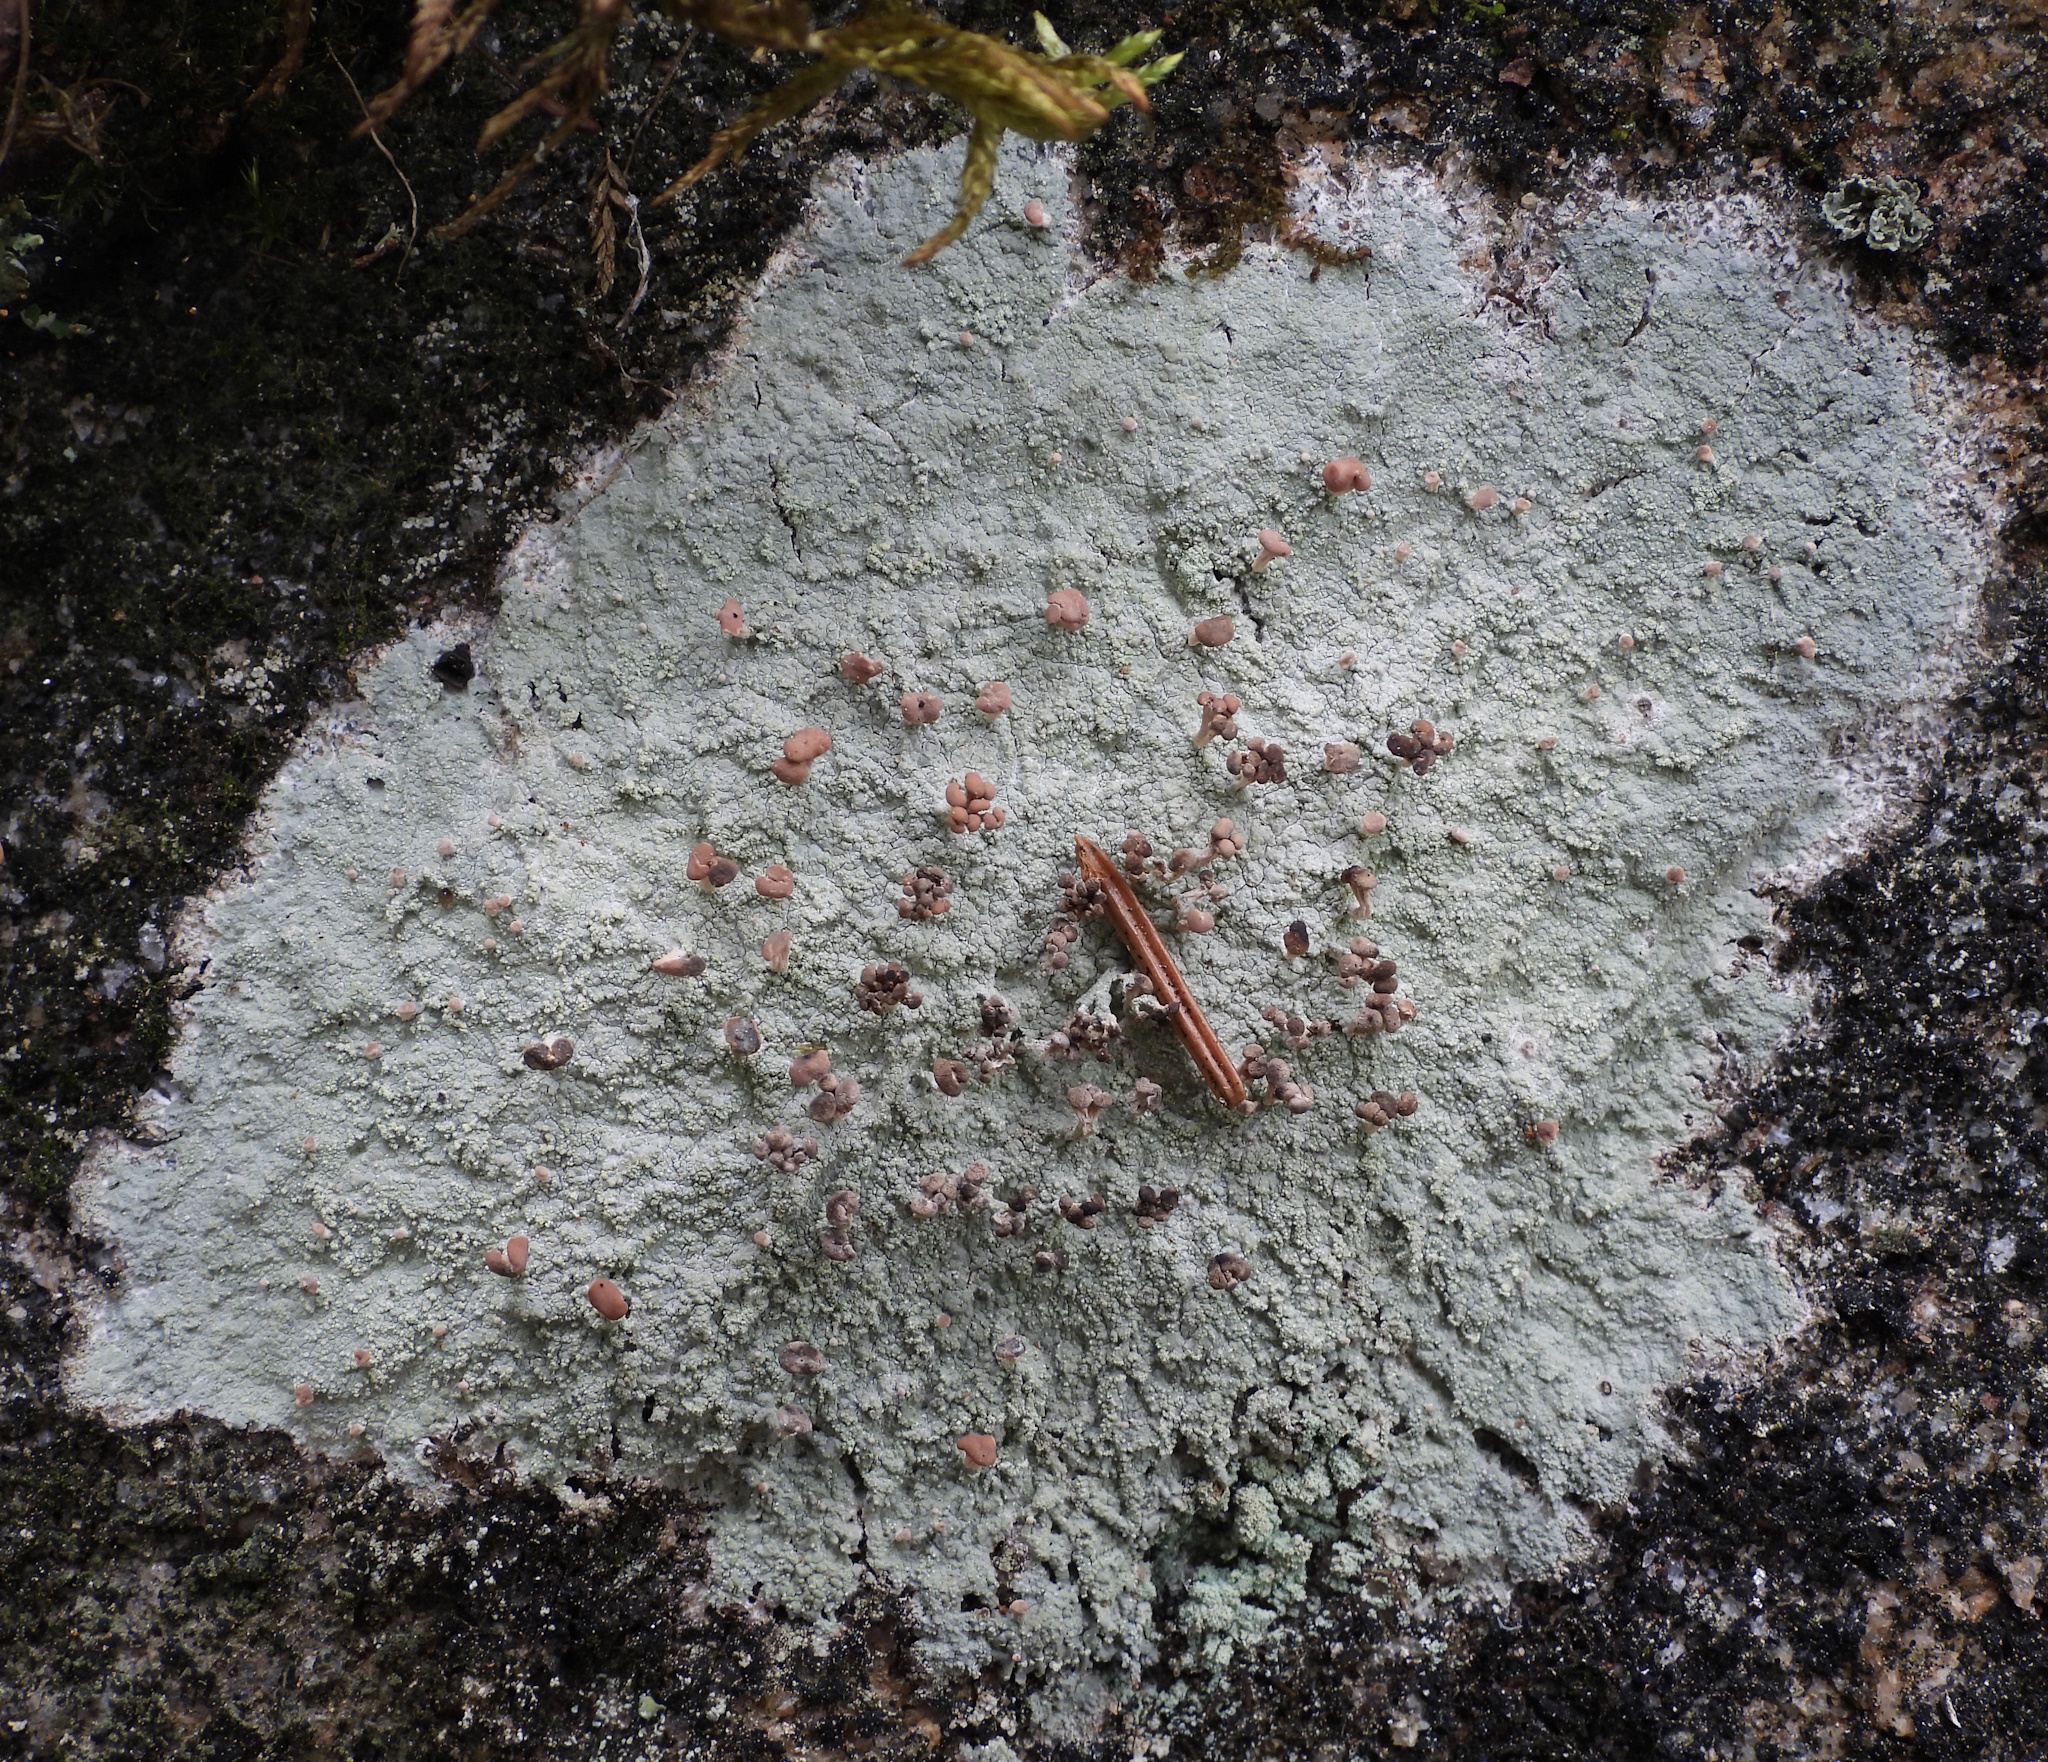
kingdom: Fungi
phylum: Ascomycota
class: Lecanoromycetes
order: Baeomycetales
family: Baeomycetaceae
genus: Baeomyces
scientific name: Baeomyces rufus
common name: Brown beret lichen
